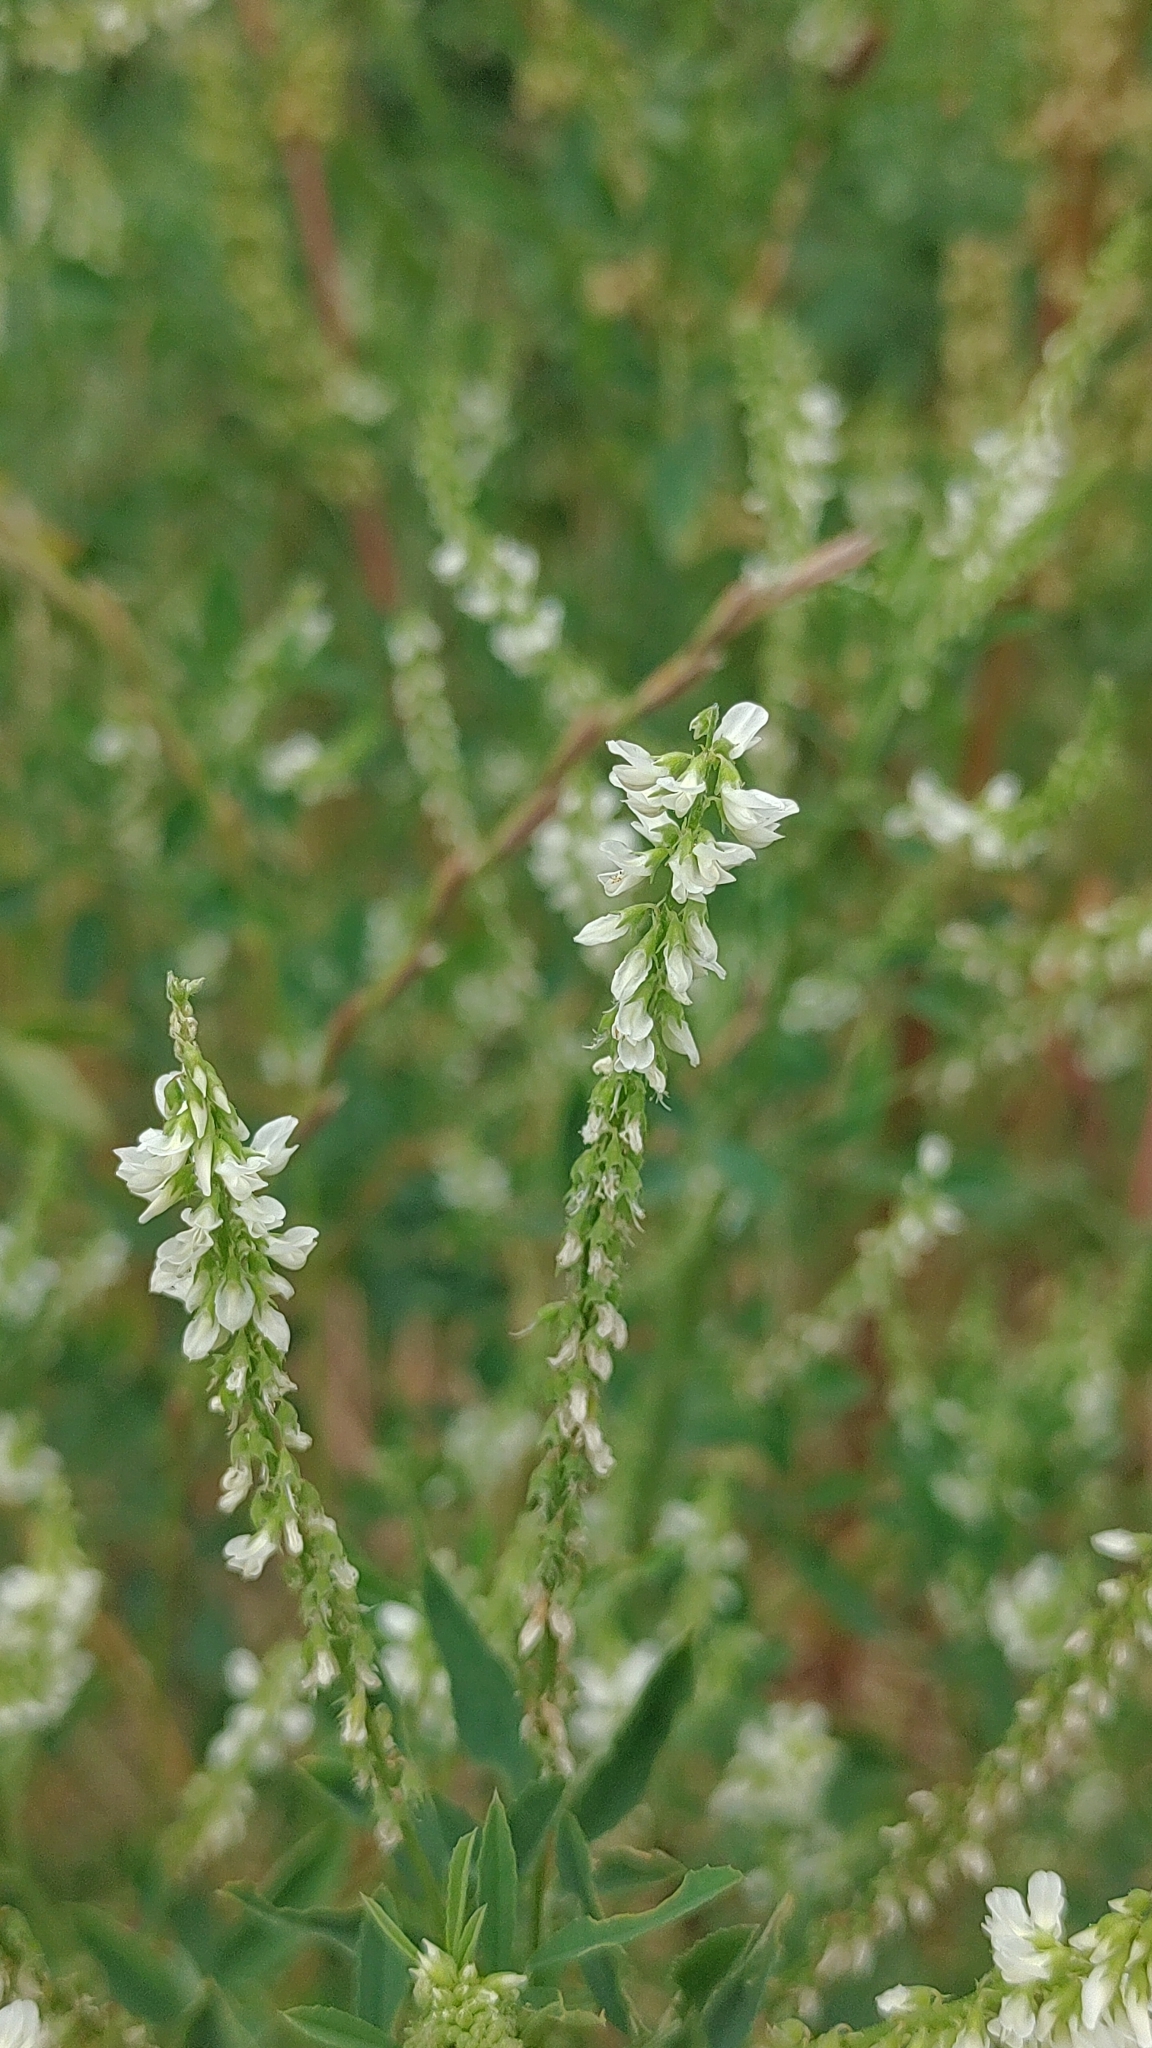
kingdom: Plantae
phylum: Tracheophyta
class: Magnoliopsida
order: Fabales
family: Fabaceae
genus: Melilotus
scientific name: Melilotus albus
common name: White melilot
